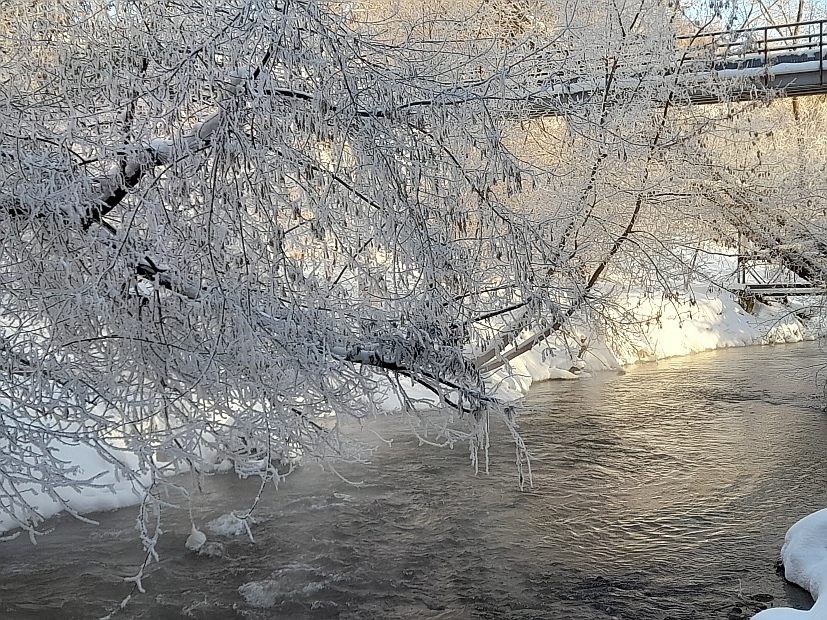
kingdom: Plantae
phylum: Tracheophyta
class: Magnoliopsida
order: Sapindales
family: Sapindaceae
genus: Acer
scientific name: Acer negundo
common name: Ashleaf maple
